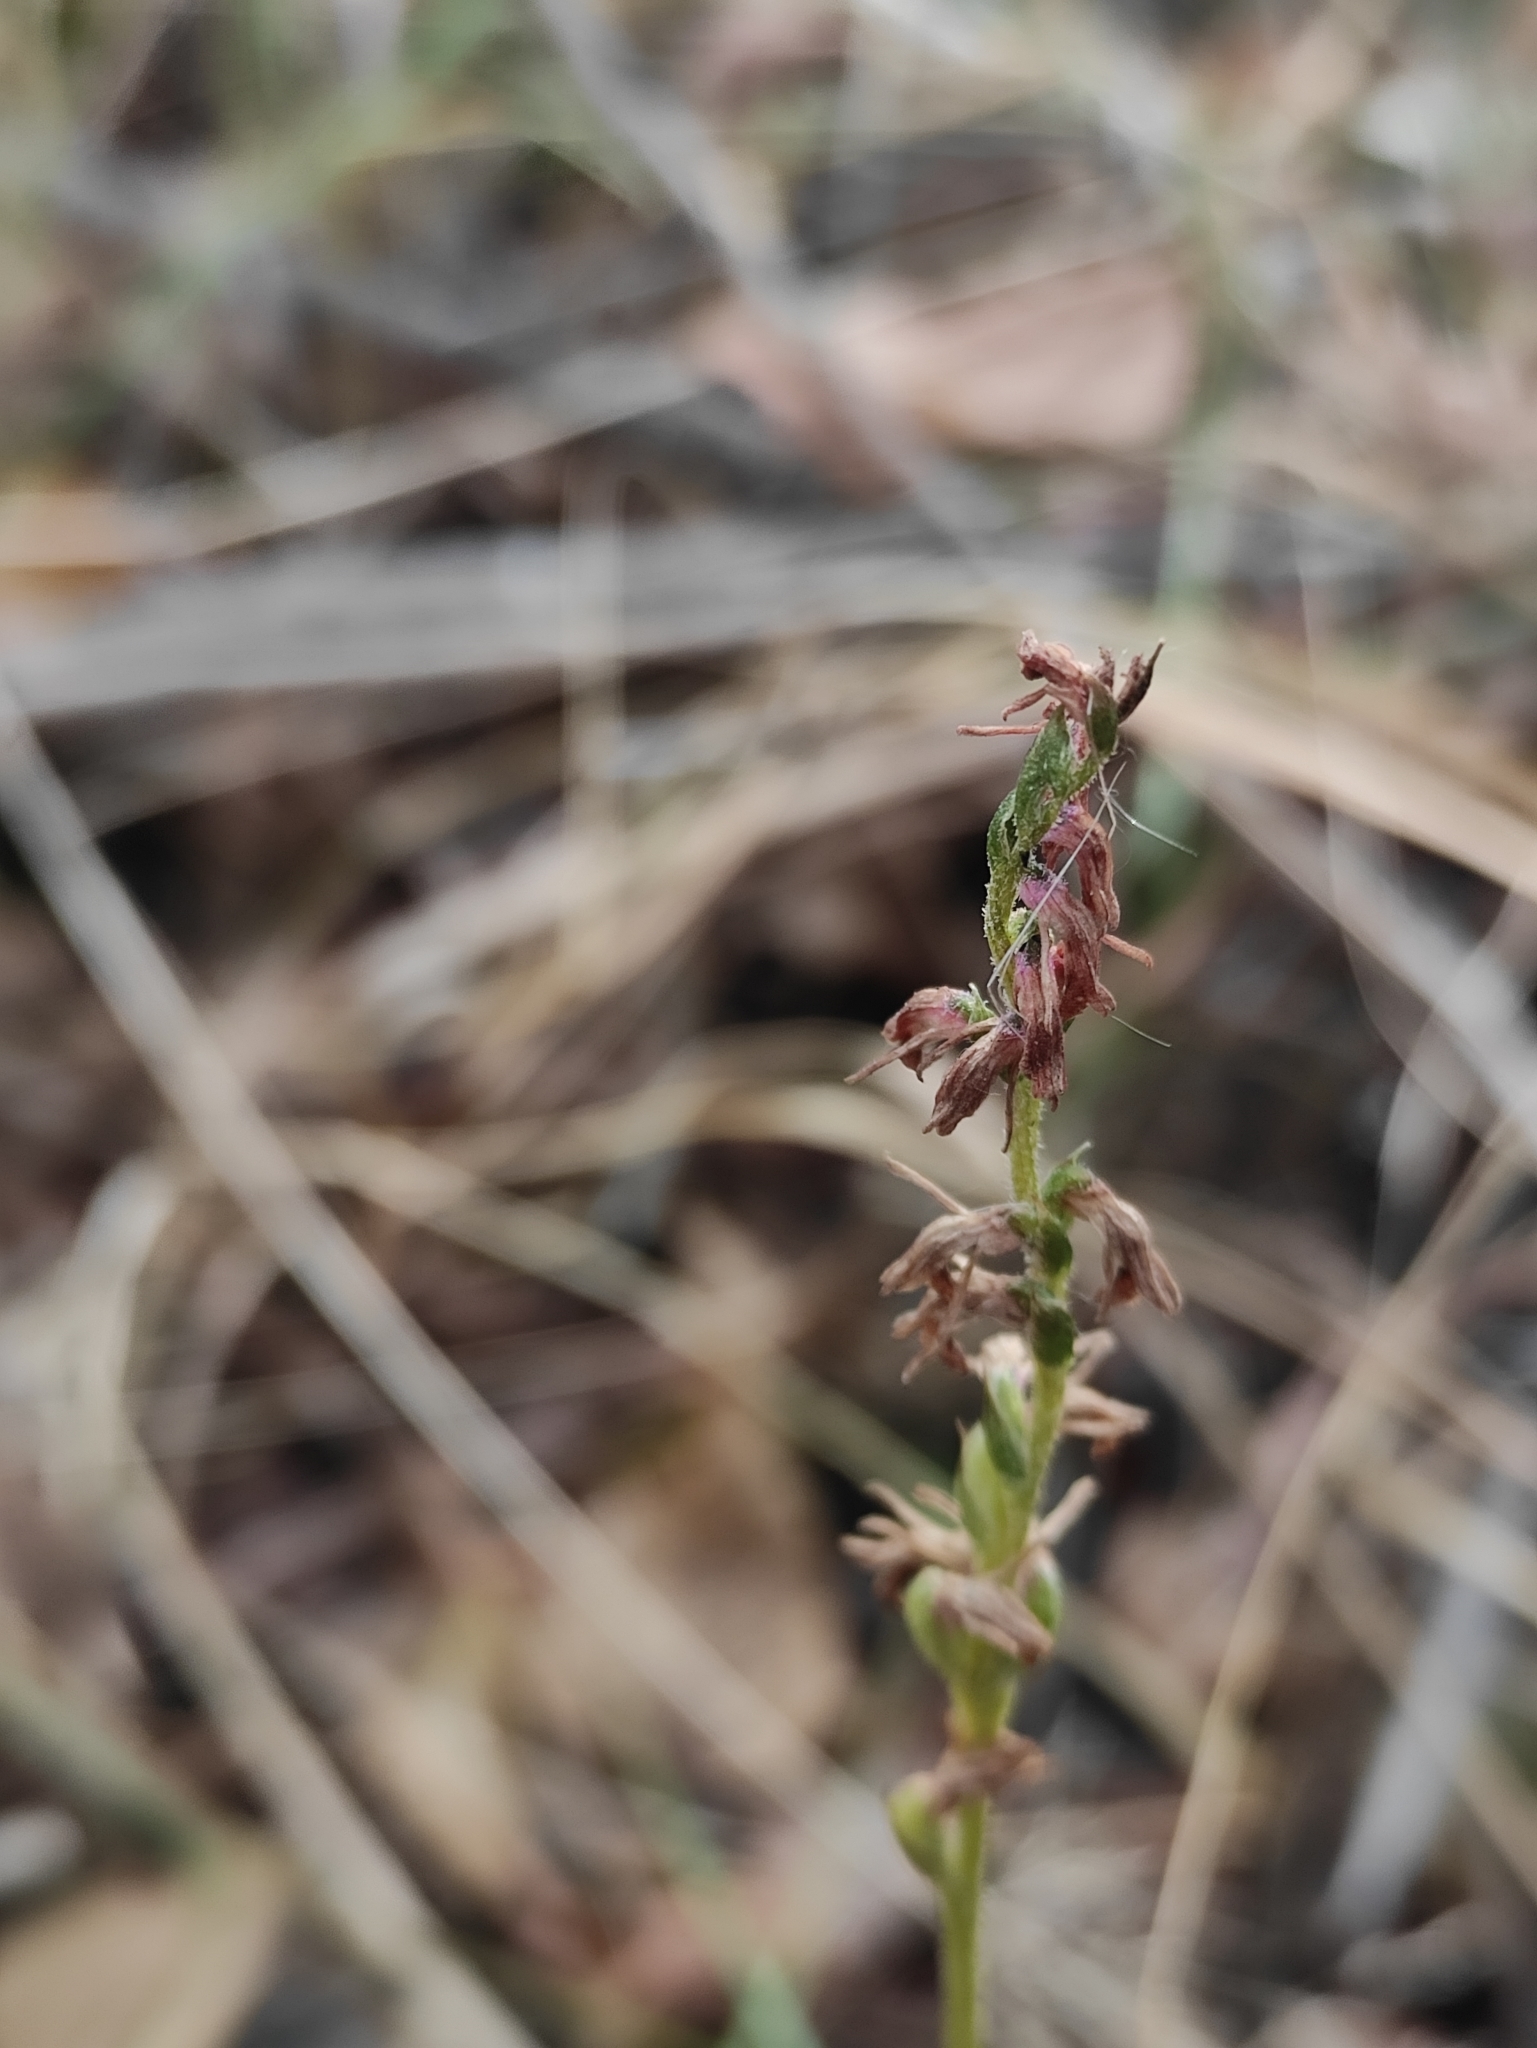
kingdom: Plantae
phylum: Tracheophyta
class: Liliopsida
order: Asparagales
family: Orchidaceae
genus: Hemipilia
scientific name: Hemipilia cucullata
